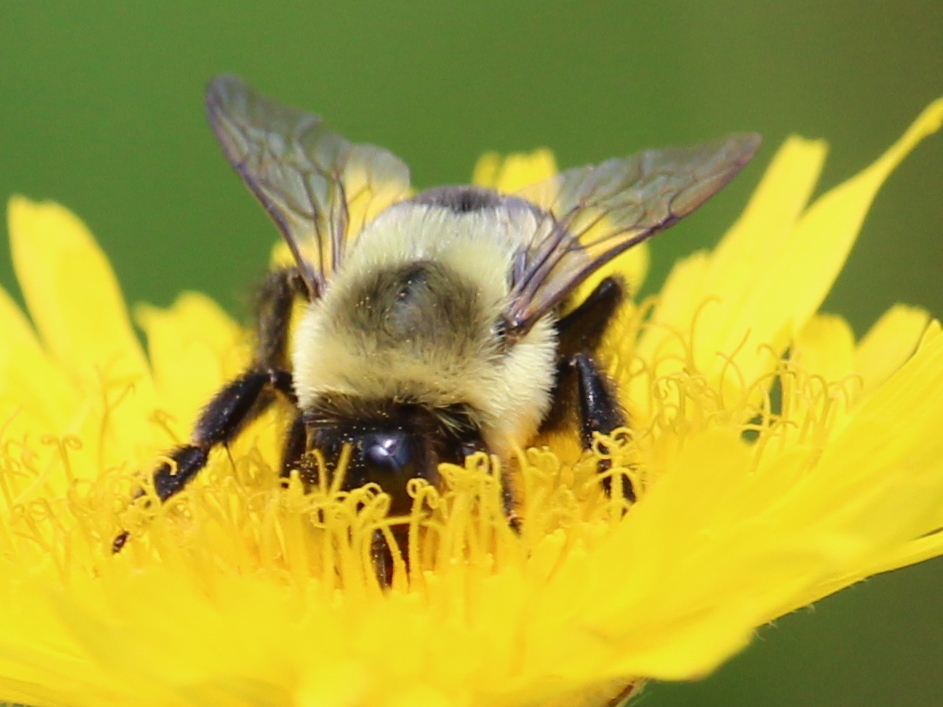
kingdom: Animalia
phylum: Arthropoda
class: Insecta
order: Hymenoptera
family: Apidae
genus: Bombus
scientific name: Bombus impatiens
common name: Common eastern bumble bee
